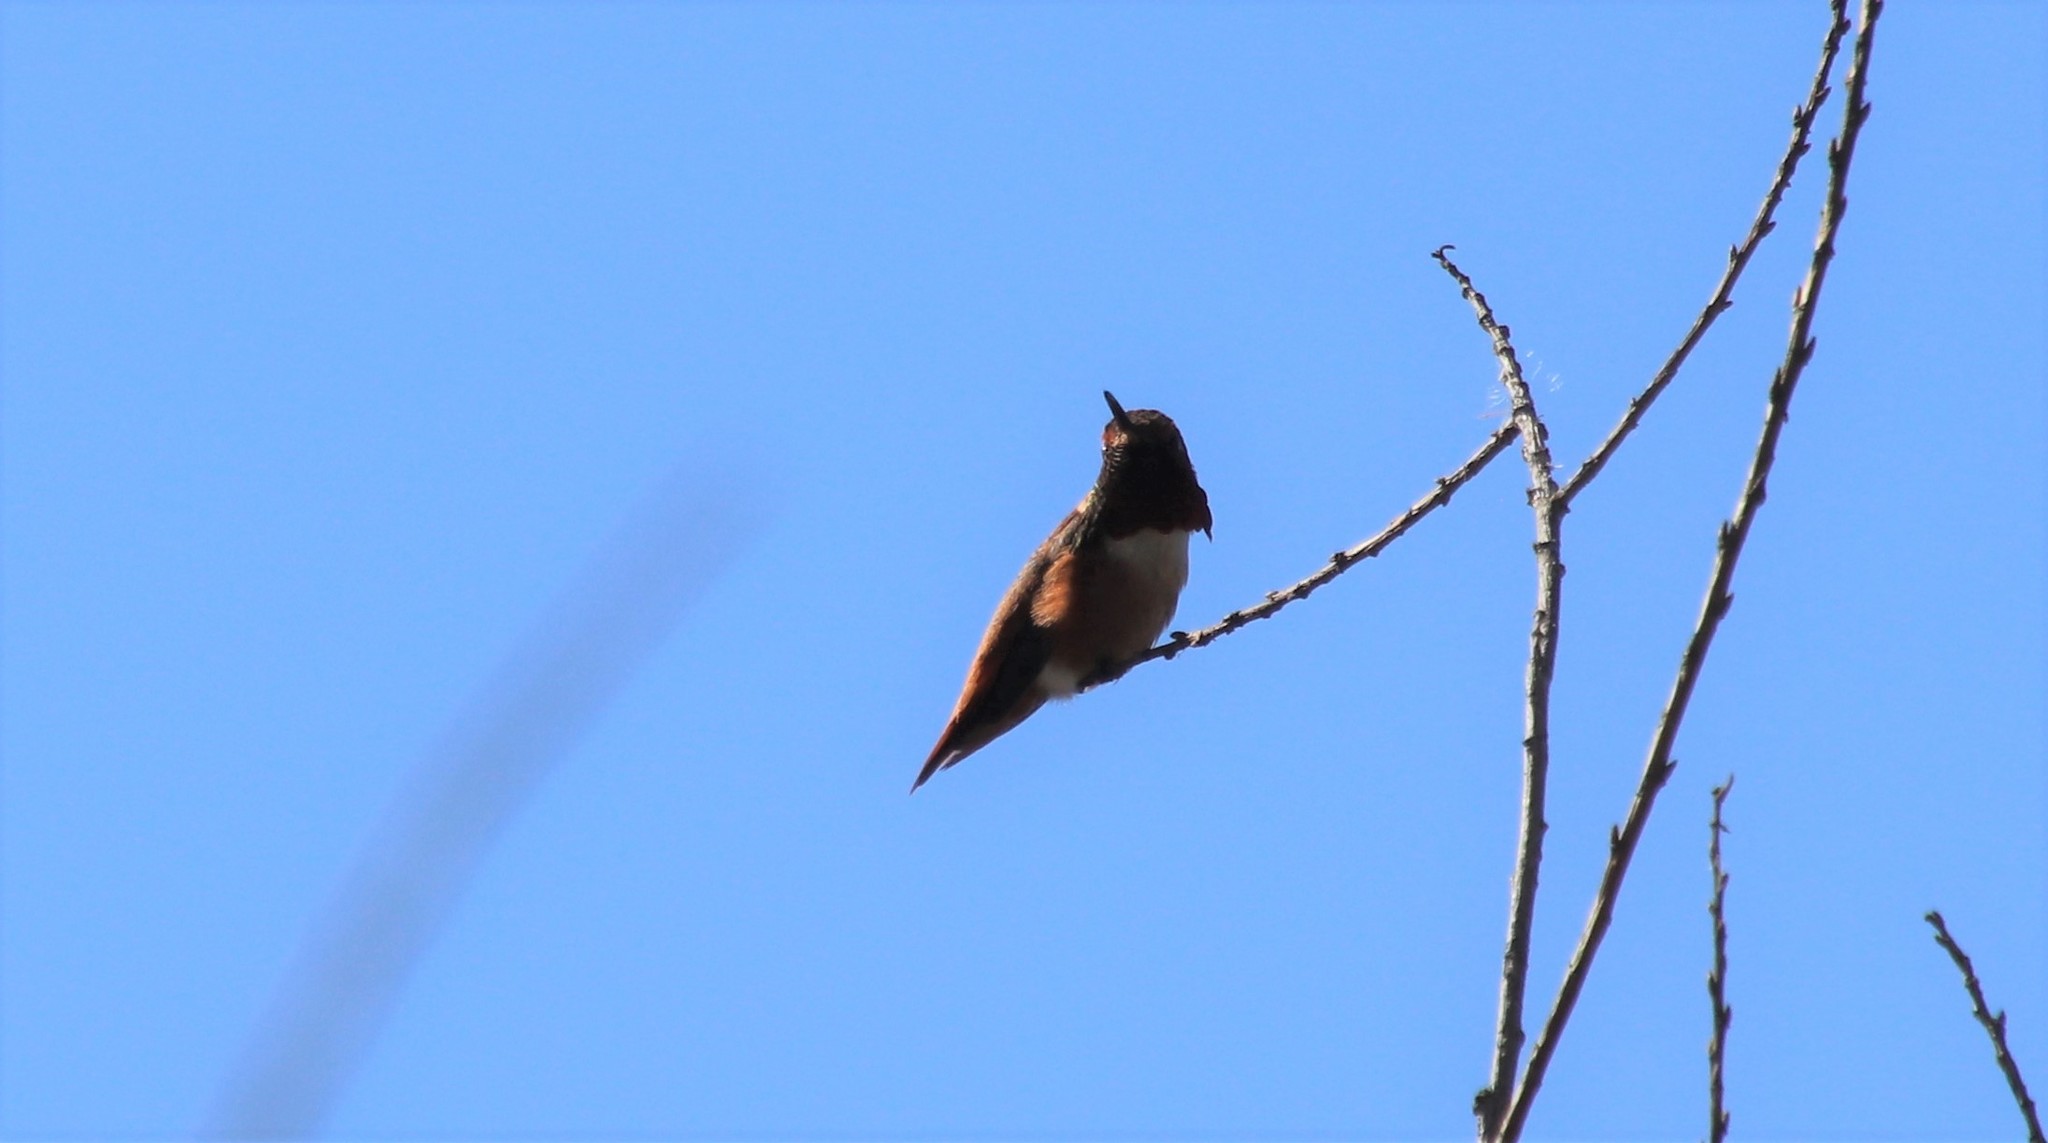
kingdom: Animalia
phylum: Chordata
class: Aves
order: Apodiformes
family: Trochilidae
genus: Selasphorus
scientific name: Selasphorus sasin
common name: Allen's hummingbird
